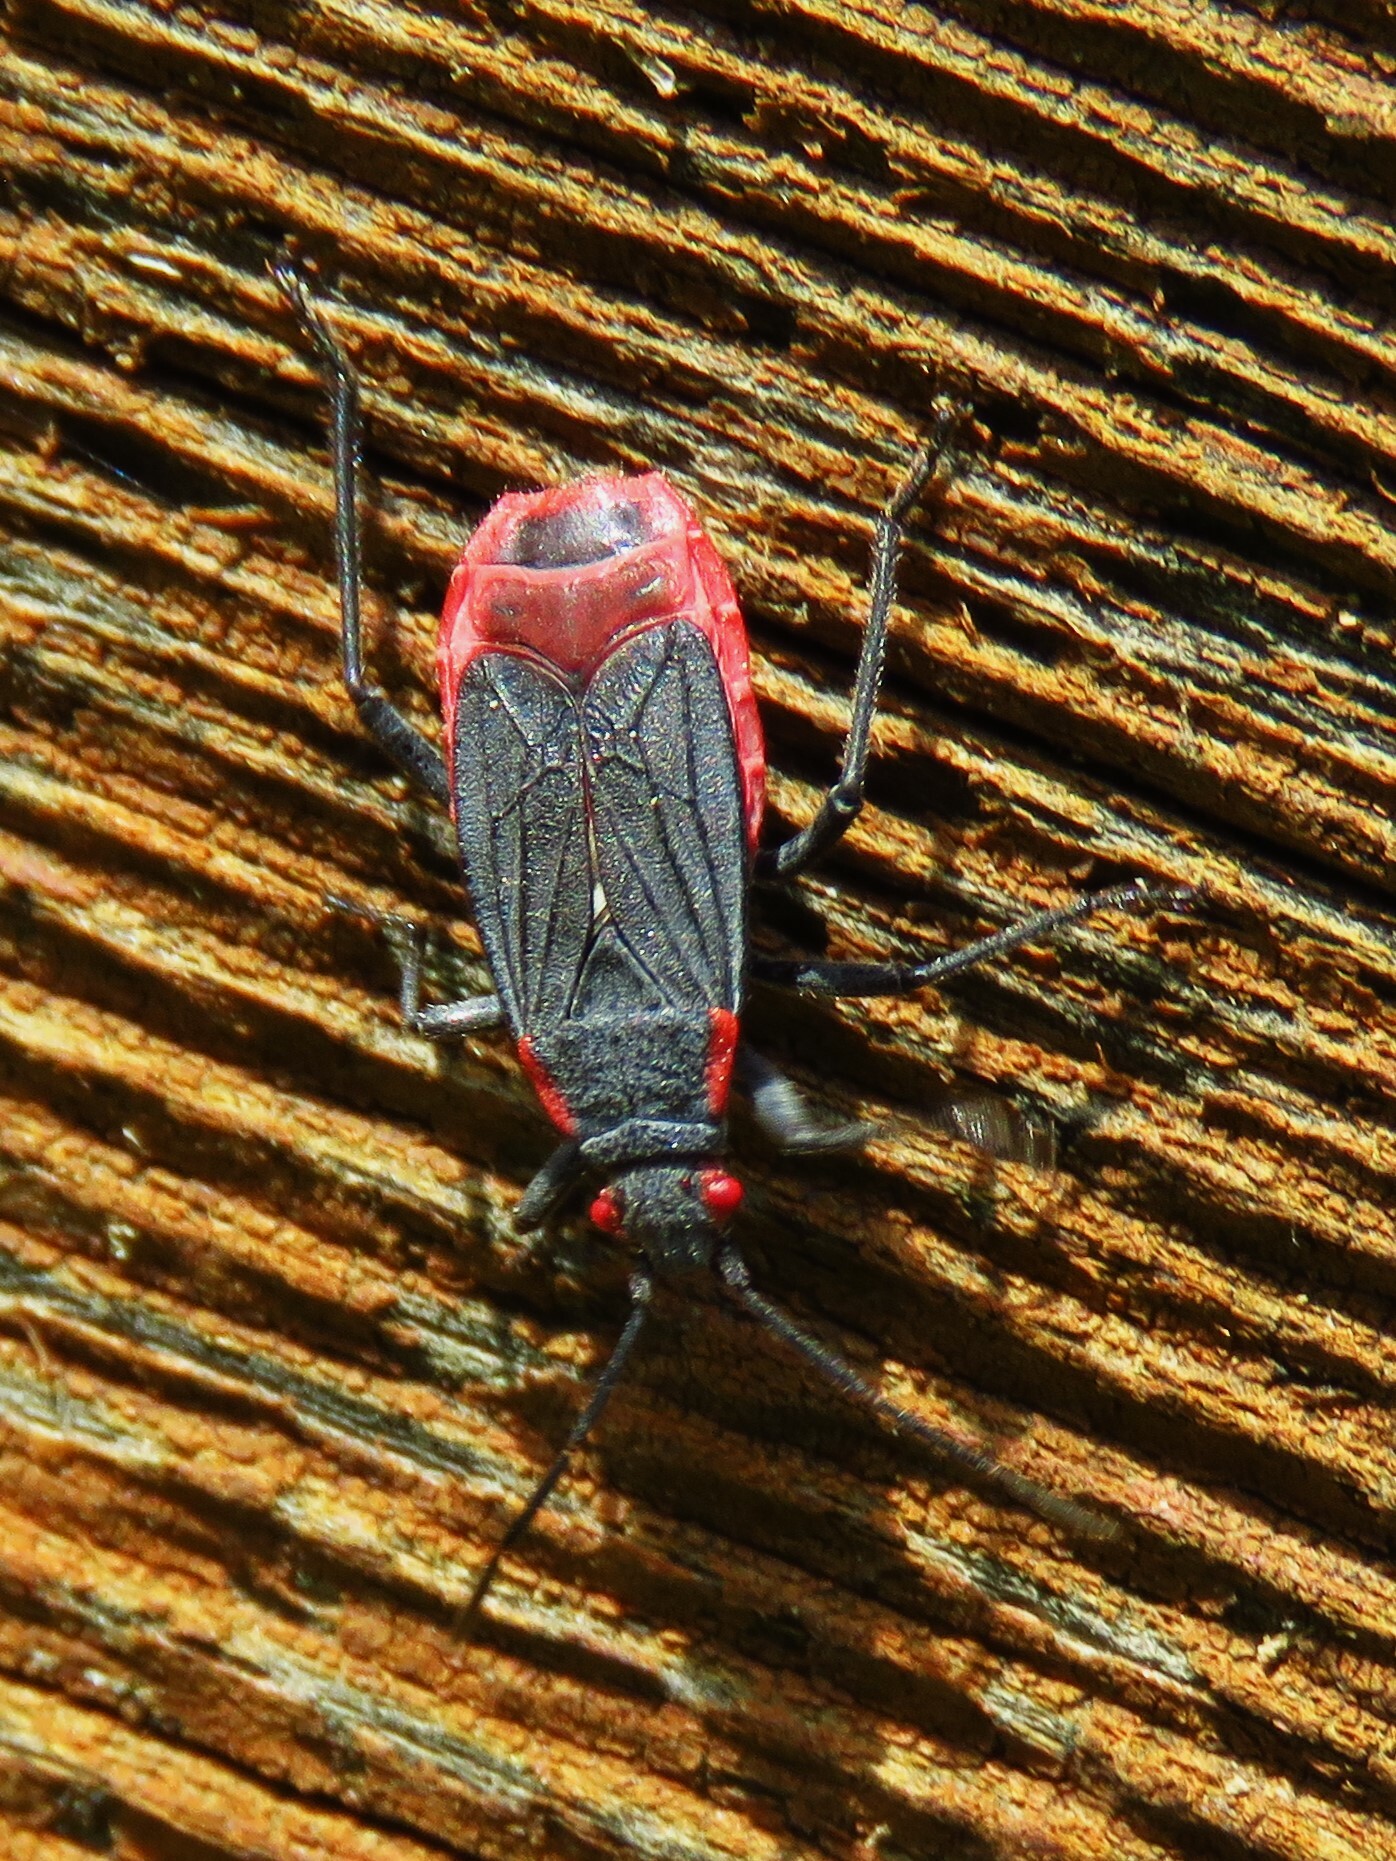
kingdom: Animalia
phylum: Arthropoda
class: Insecta
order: Hemiptera
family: Rhopalidae
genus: Jadera
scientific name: Jadera haematoloma
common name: Red-shouldered bug
